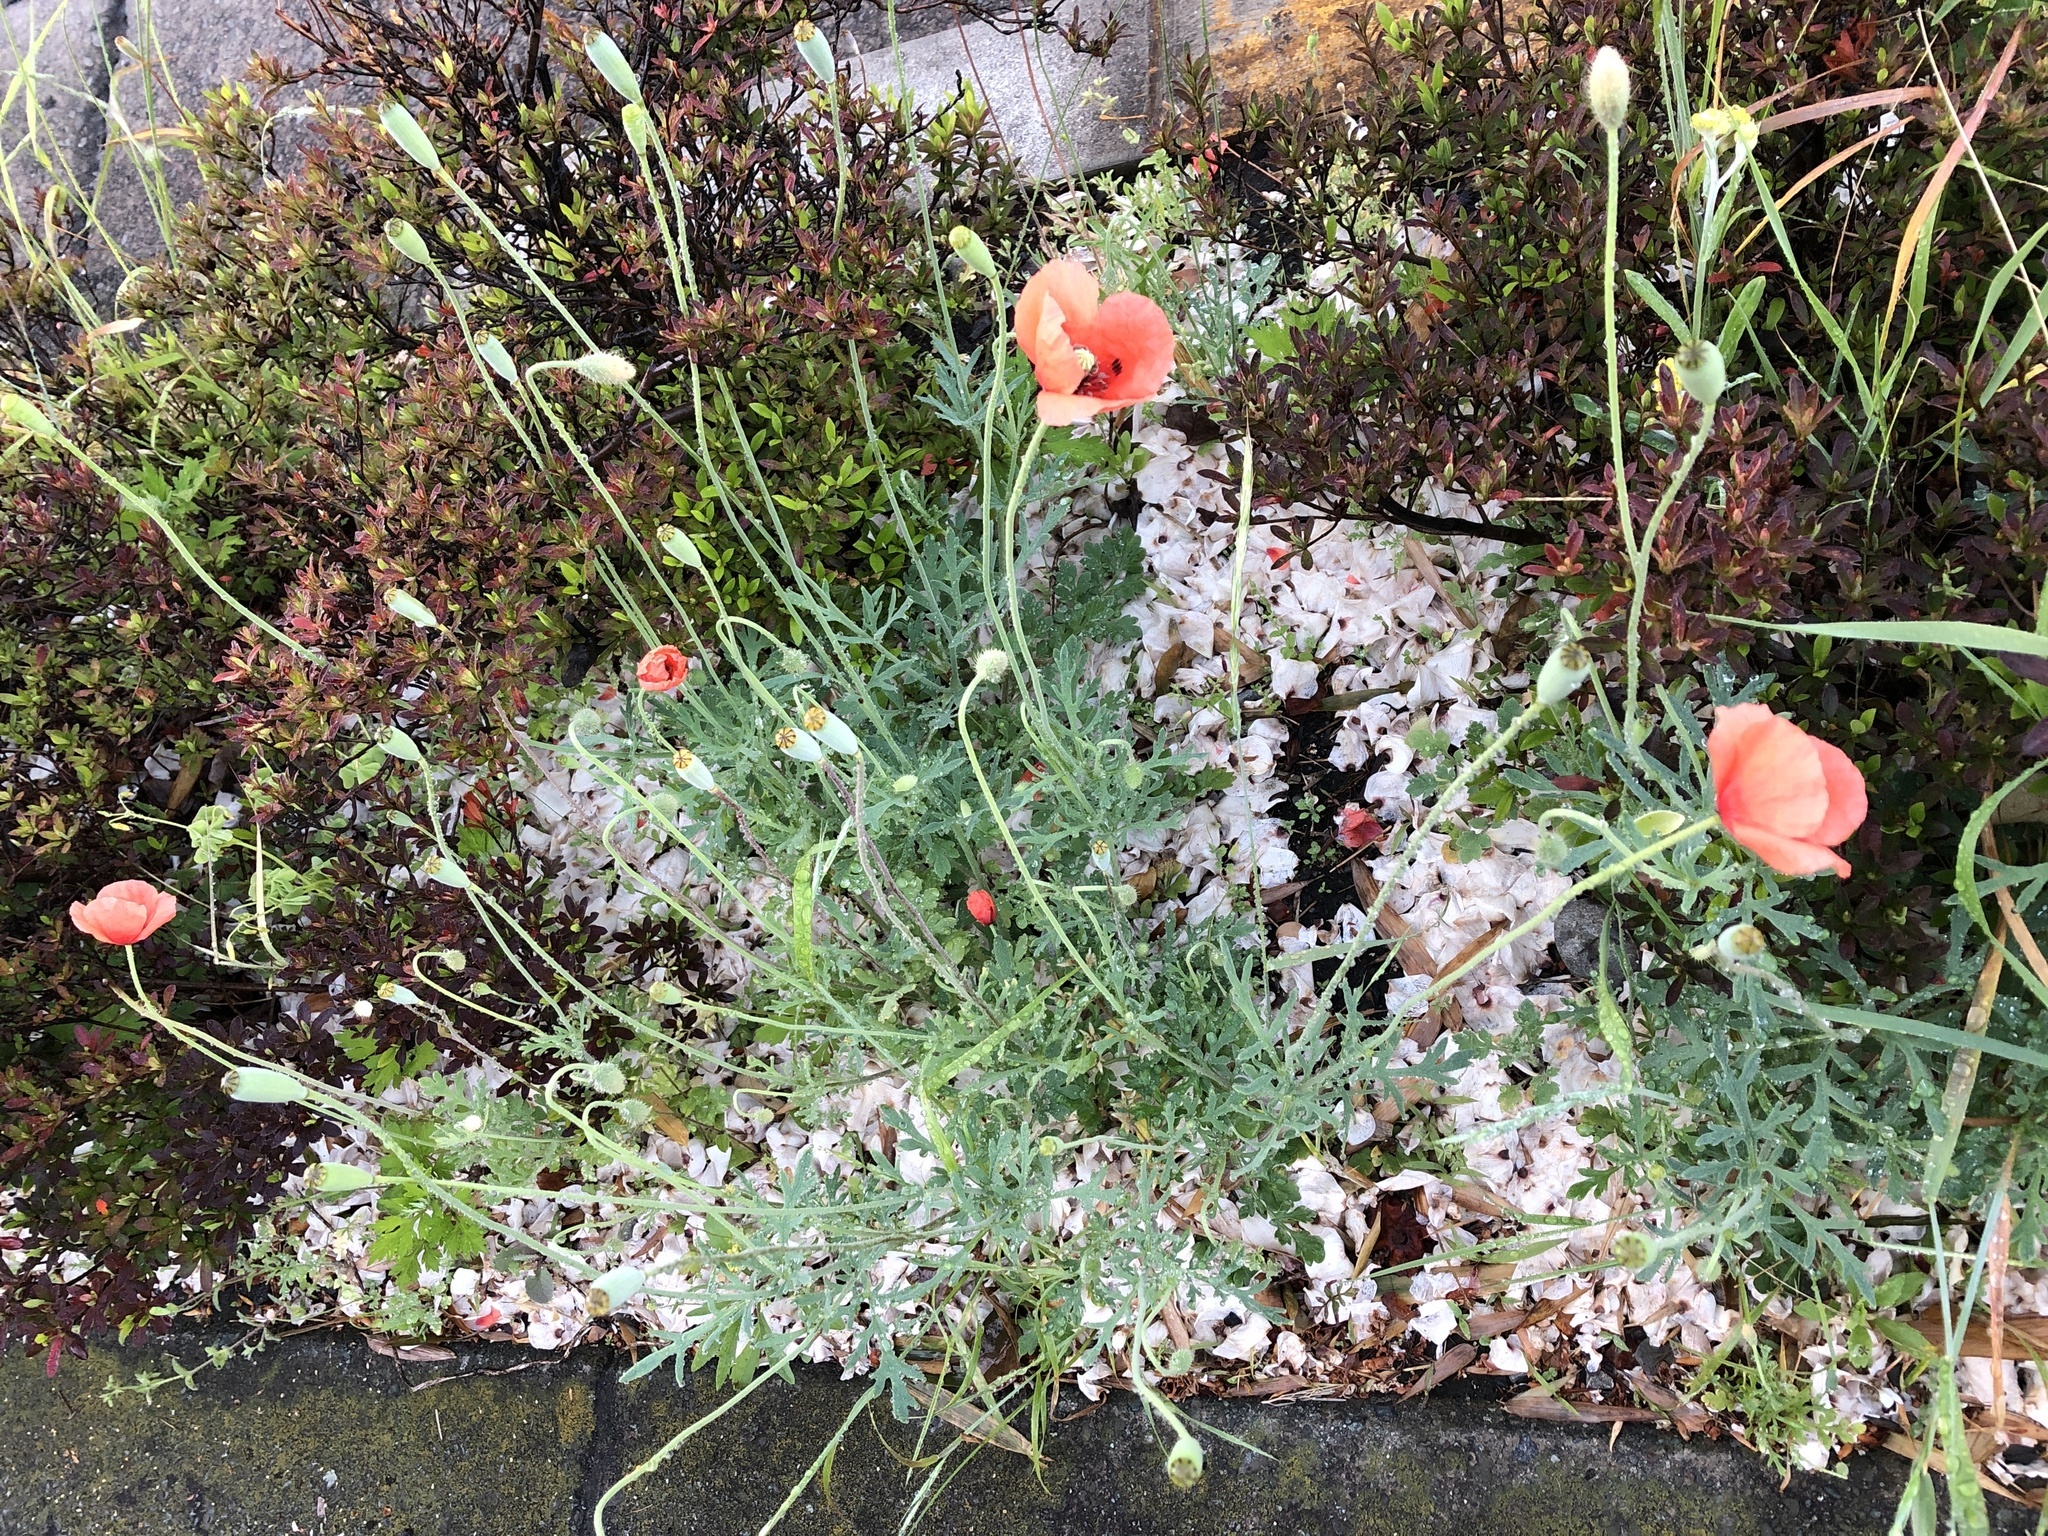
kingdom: Plantae
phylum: Tracheophyta
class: Magnoliopsida
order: Ranunculales
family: Papaveraceae
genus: Papaver
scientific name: Papaver dubium
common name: Long-headed poppy
